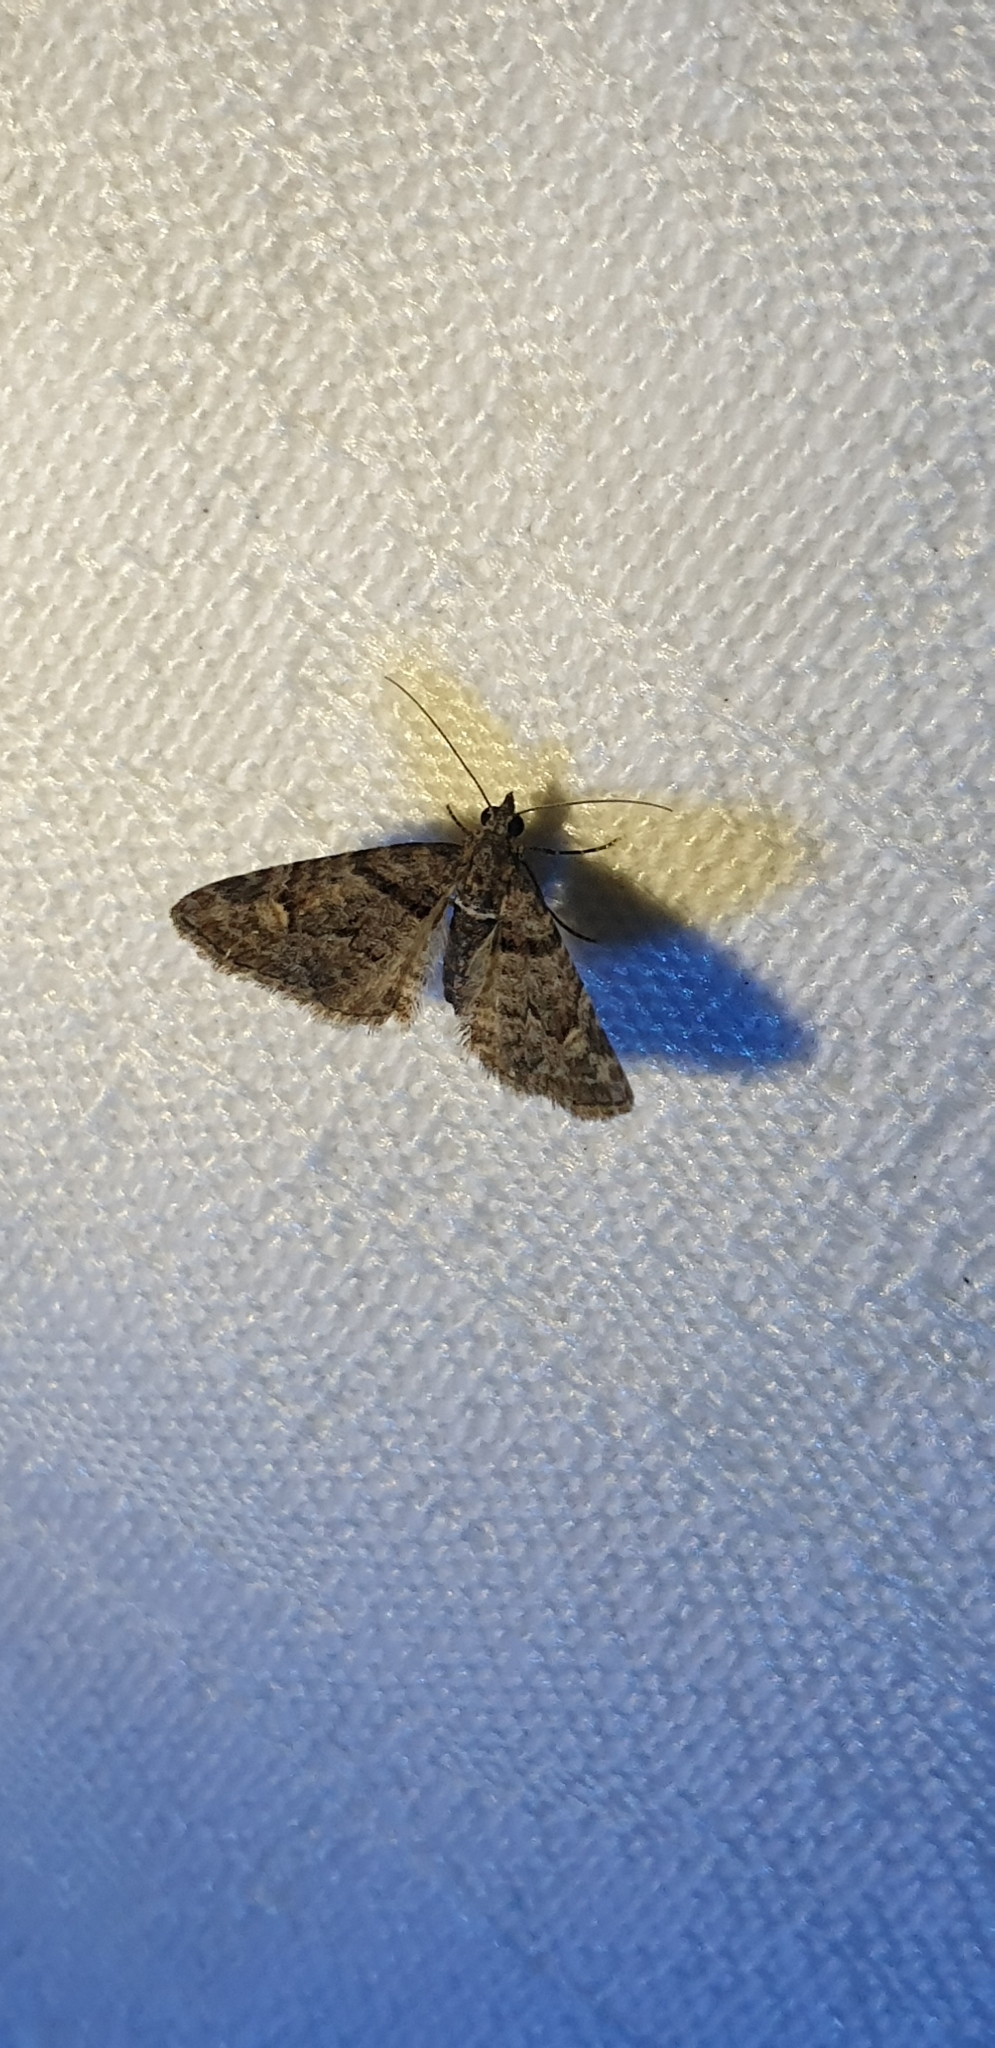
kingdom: Animalia
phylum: Arthropoda
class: Insecta
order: Lepidoptera
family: Geometridae
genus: Phrissogonus
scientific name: Phrissogonus laticostata
